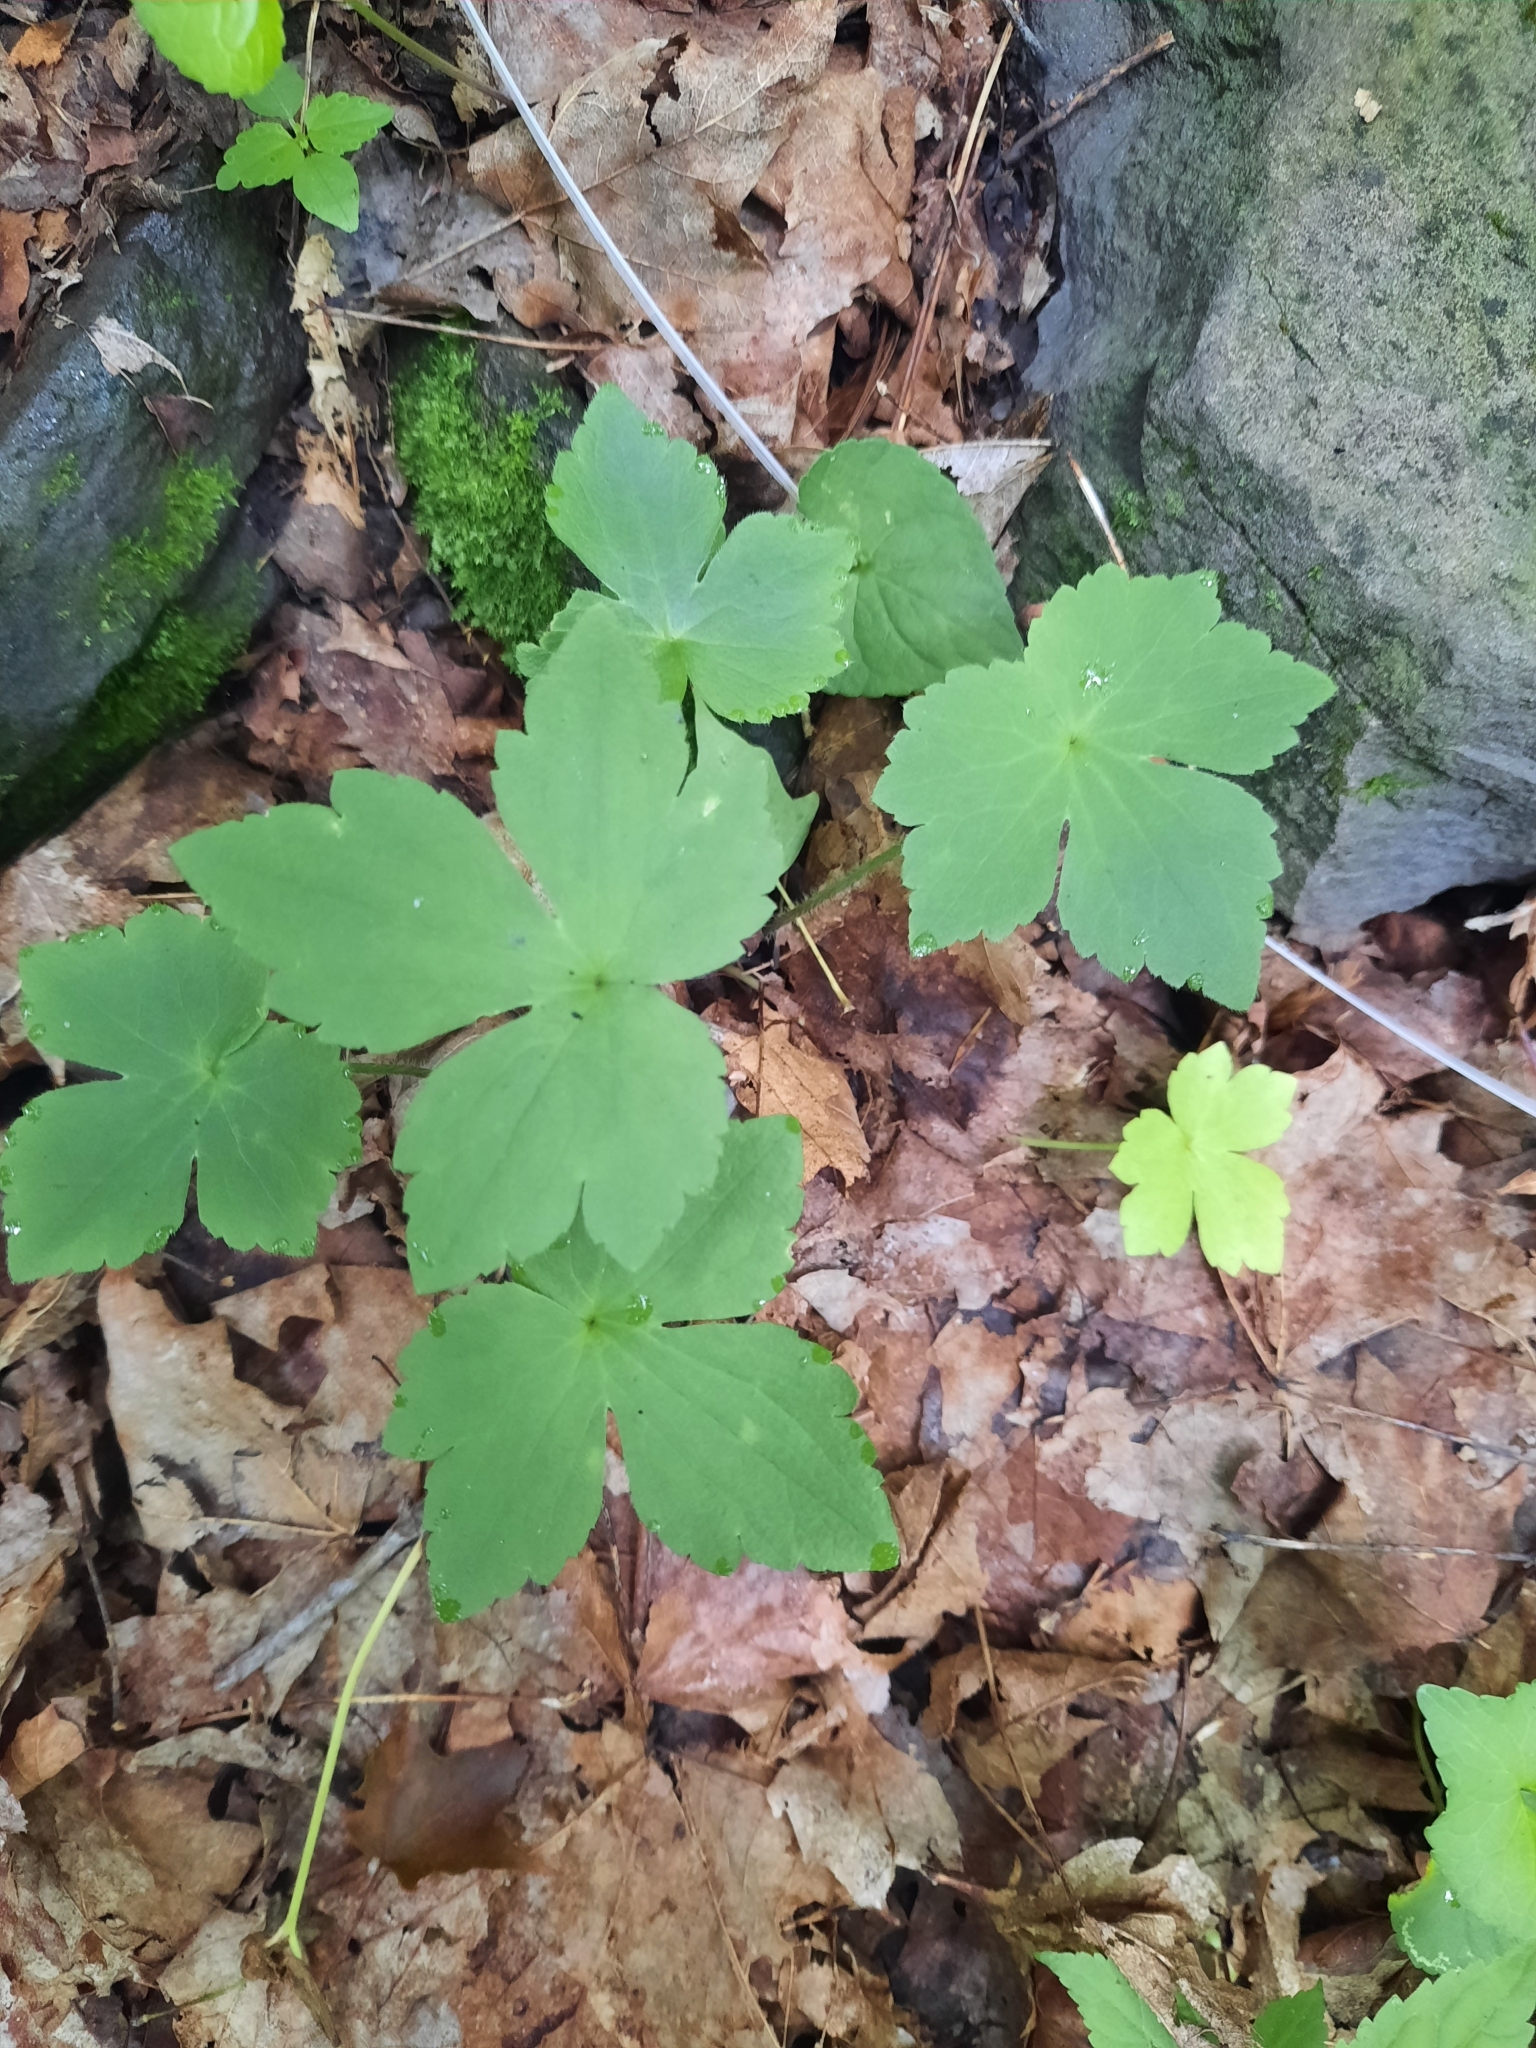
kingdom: Plantae
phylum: Tracheophyta
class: Magnoliopsida
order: Ranunculales
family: Ranunculaceae
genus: Ranunculus
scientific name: Ranunculus recurvatus
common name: Blisterwort
